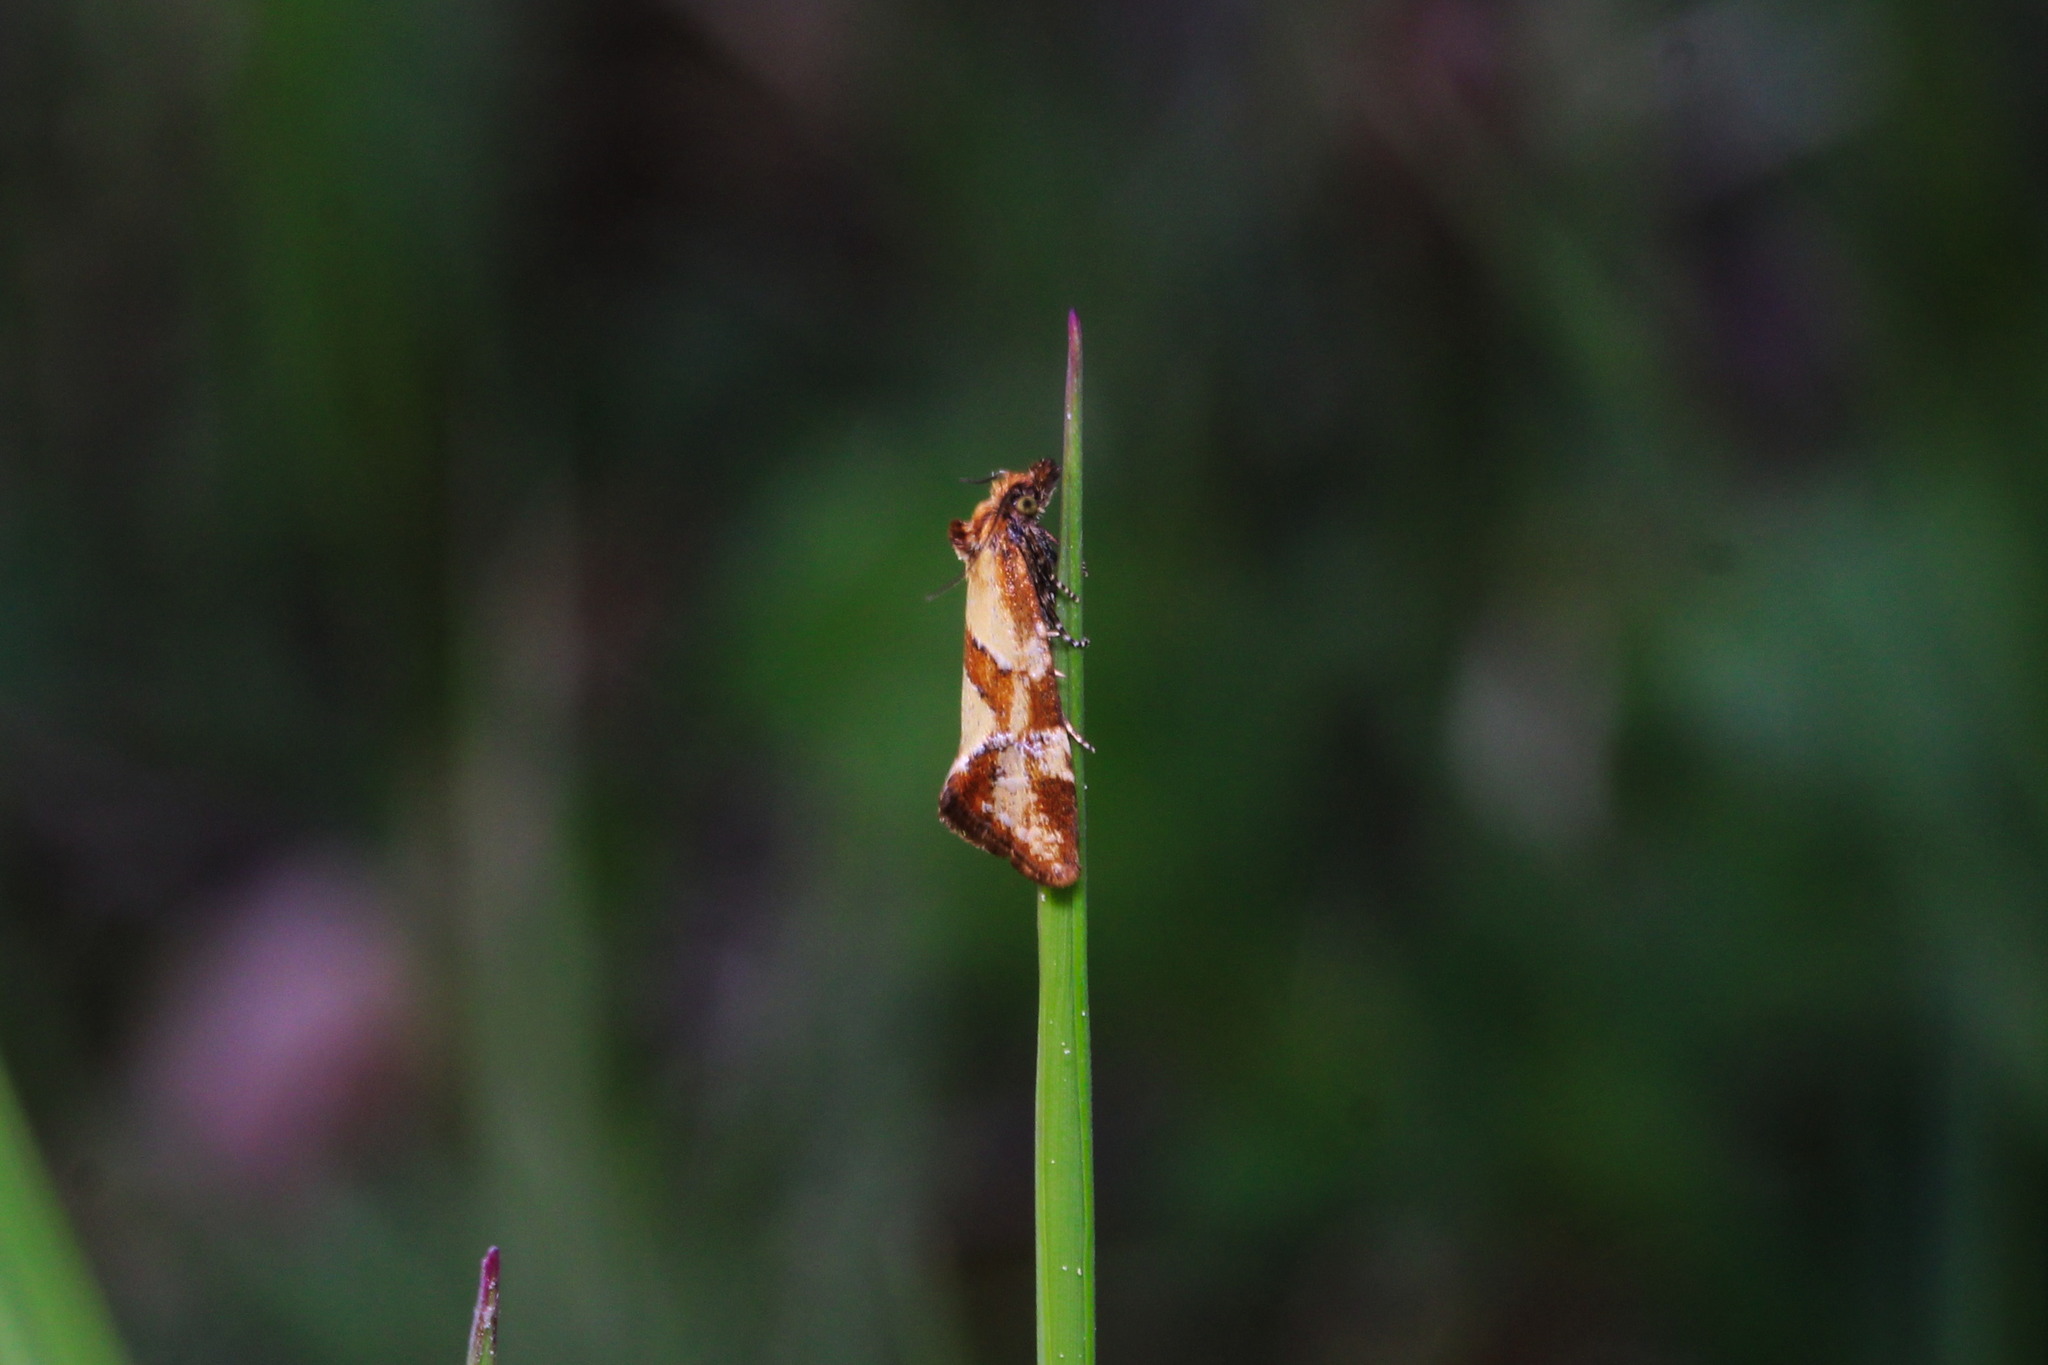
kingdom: Animalia
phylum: Arthropoda
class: Insecta
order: Lepidoptera
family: Tortricidae
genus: Aethes
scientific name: Aethes hartmanniana
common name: Scabious conch
